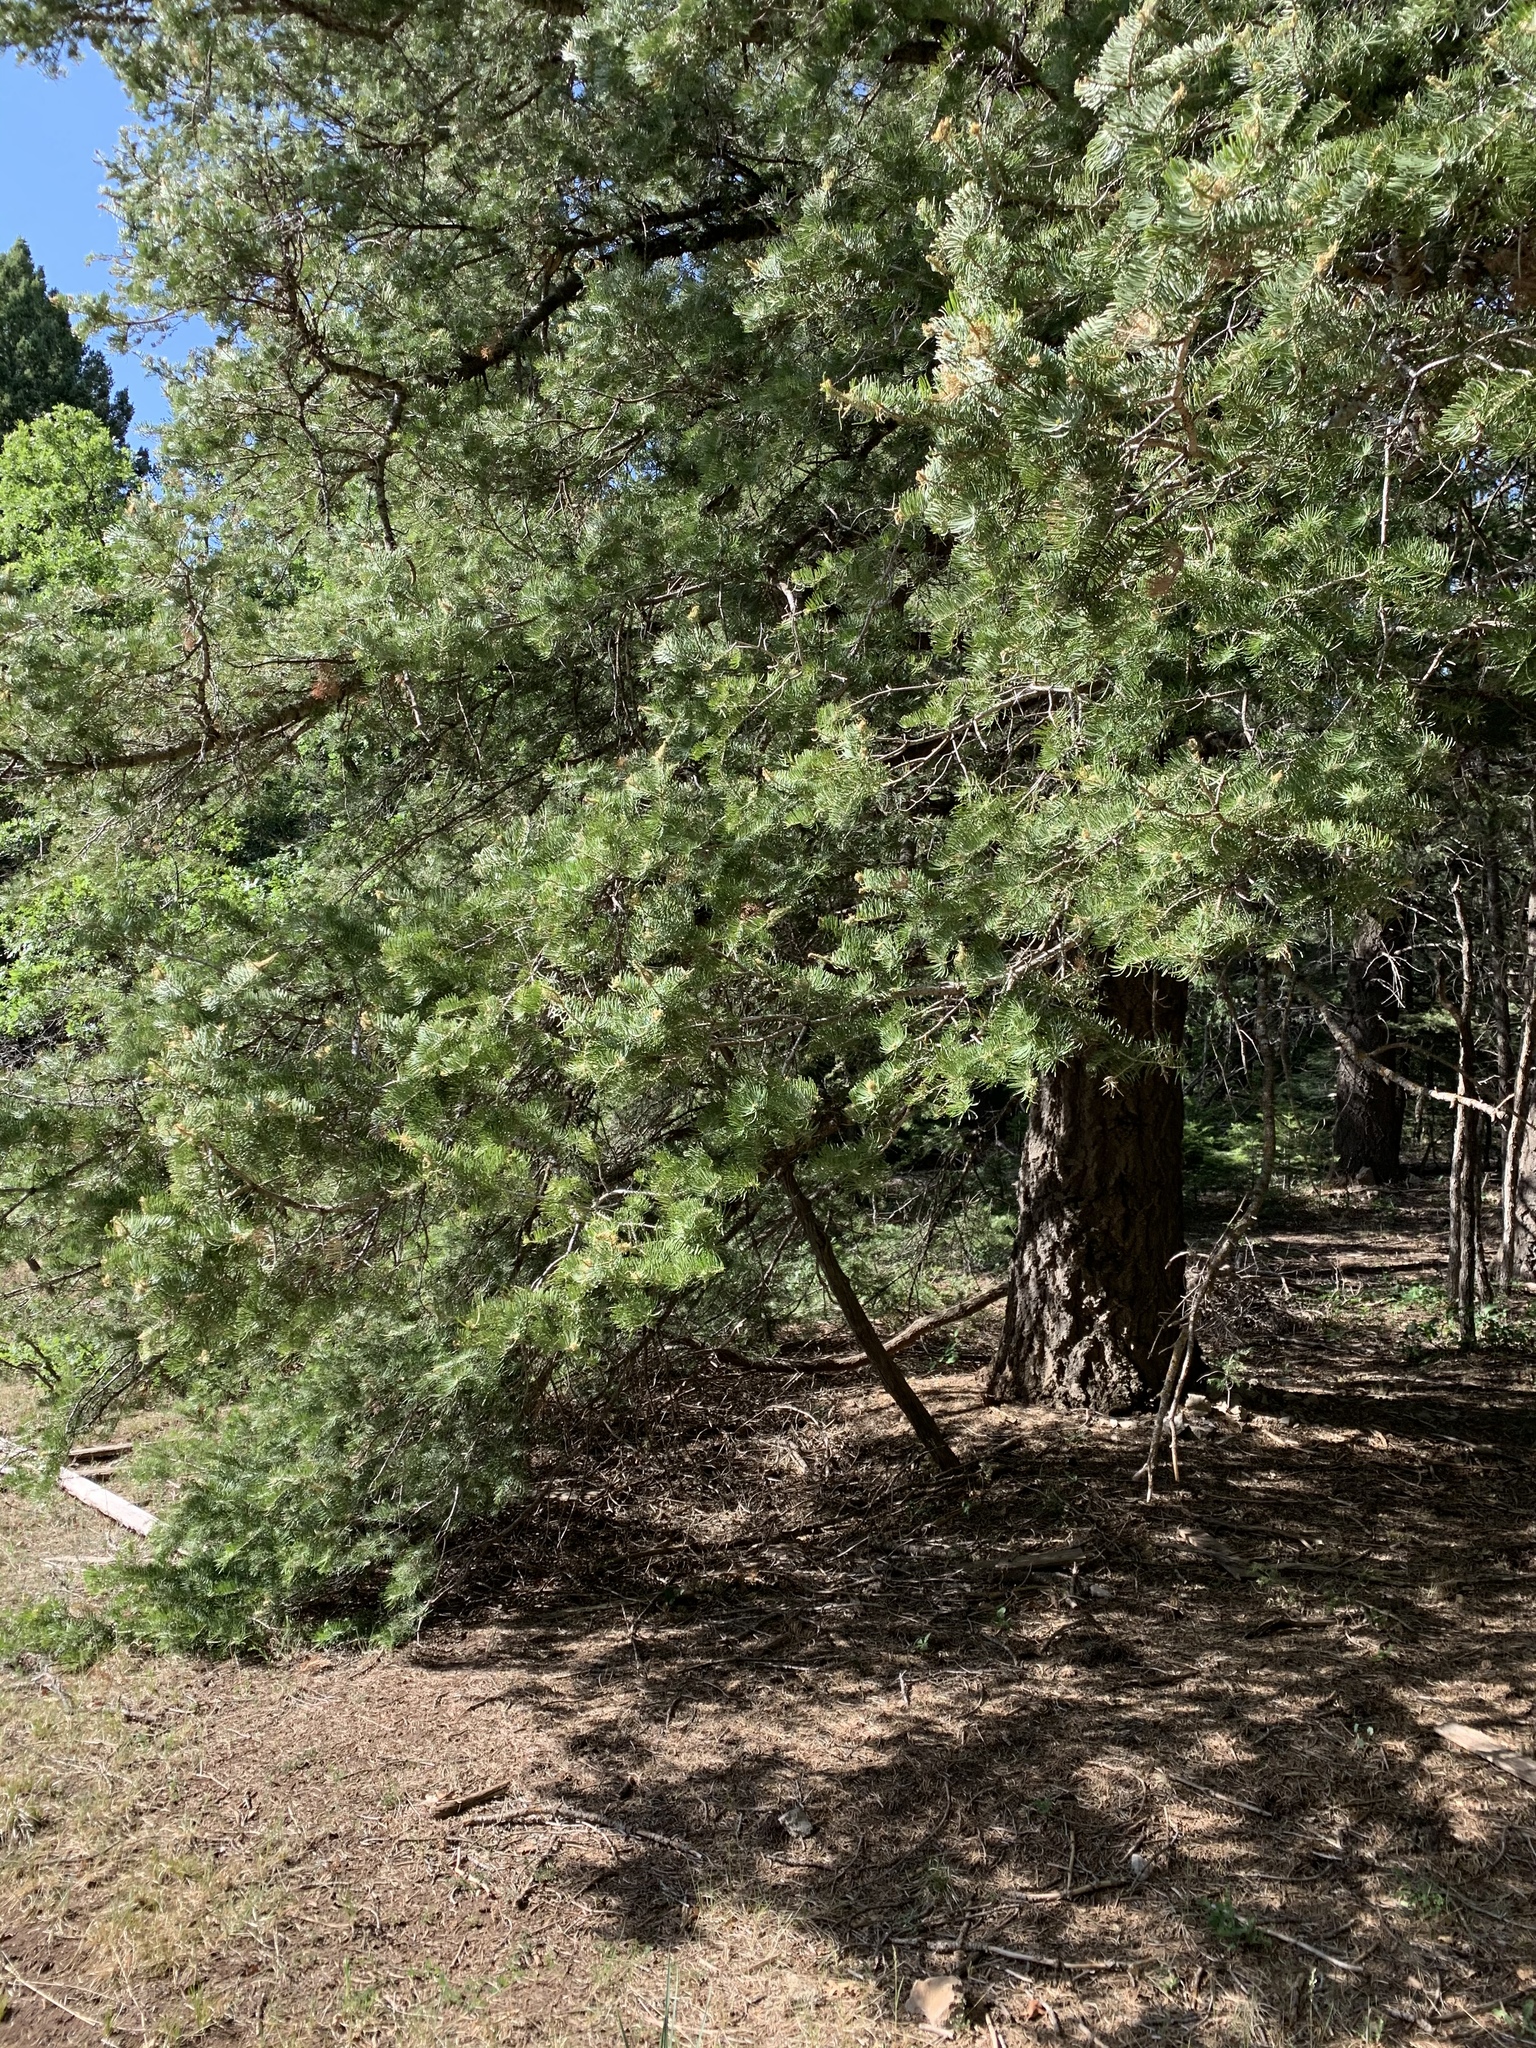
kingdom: Plantae
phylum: Tracheophyta
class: Pinopsida
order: Pinales
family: Pinaceae
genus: Abies
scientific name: Abies concolor
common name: Colorado fir
